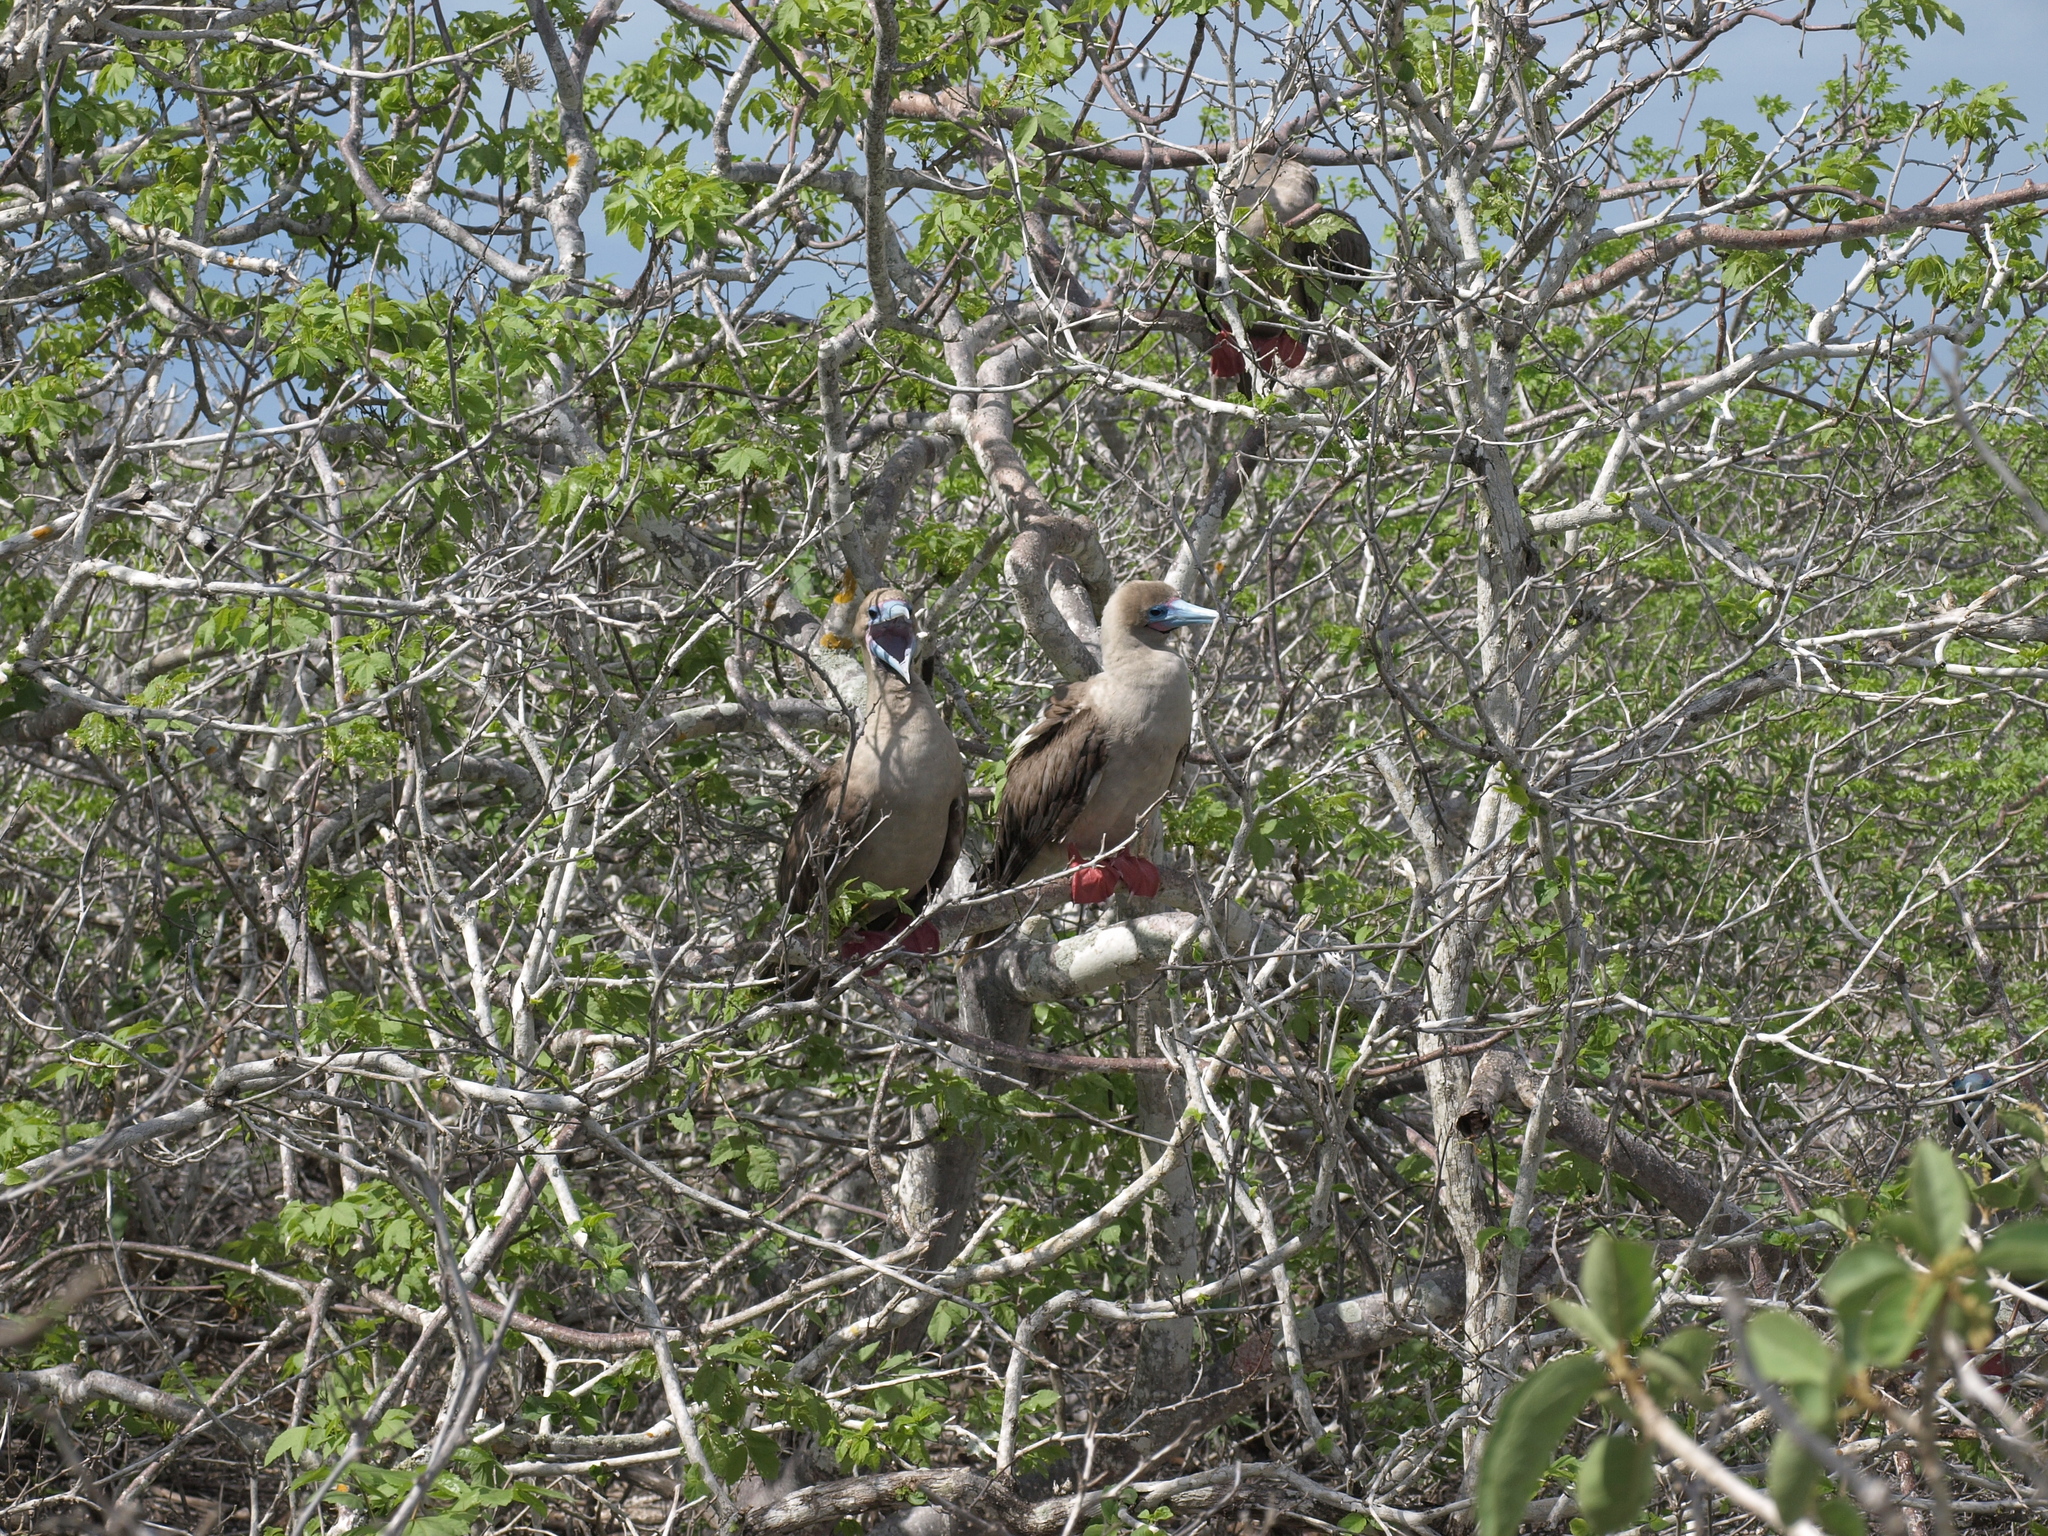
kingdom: Animalia
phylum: Chordata
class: Aves
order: Suliformes
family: Sulidae
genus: Sula
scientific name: Sula sula
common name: Red-footed booby
